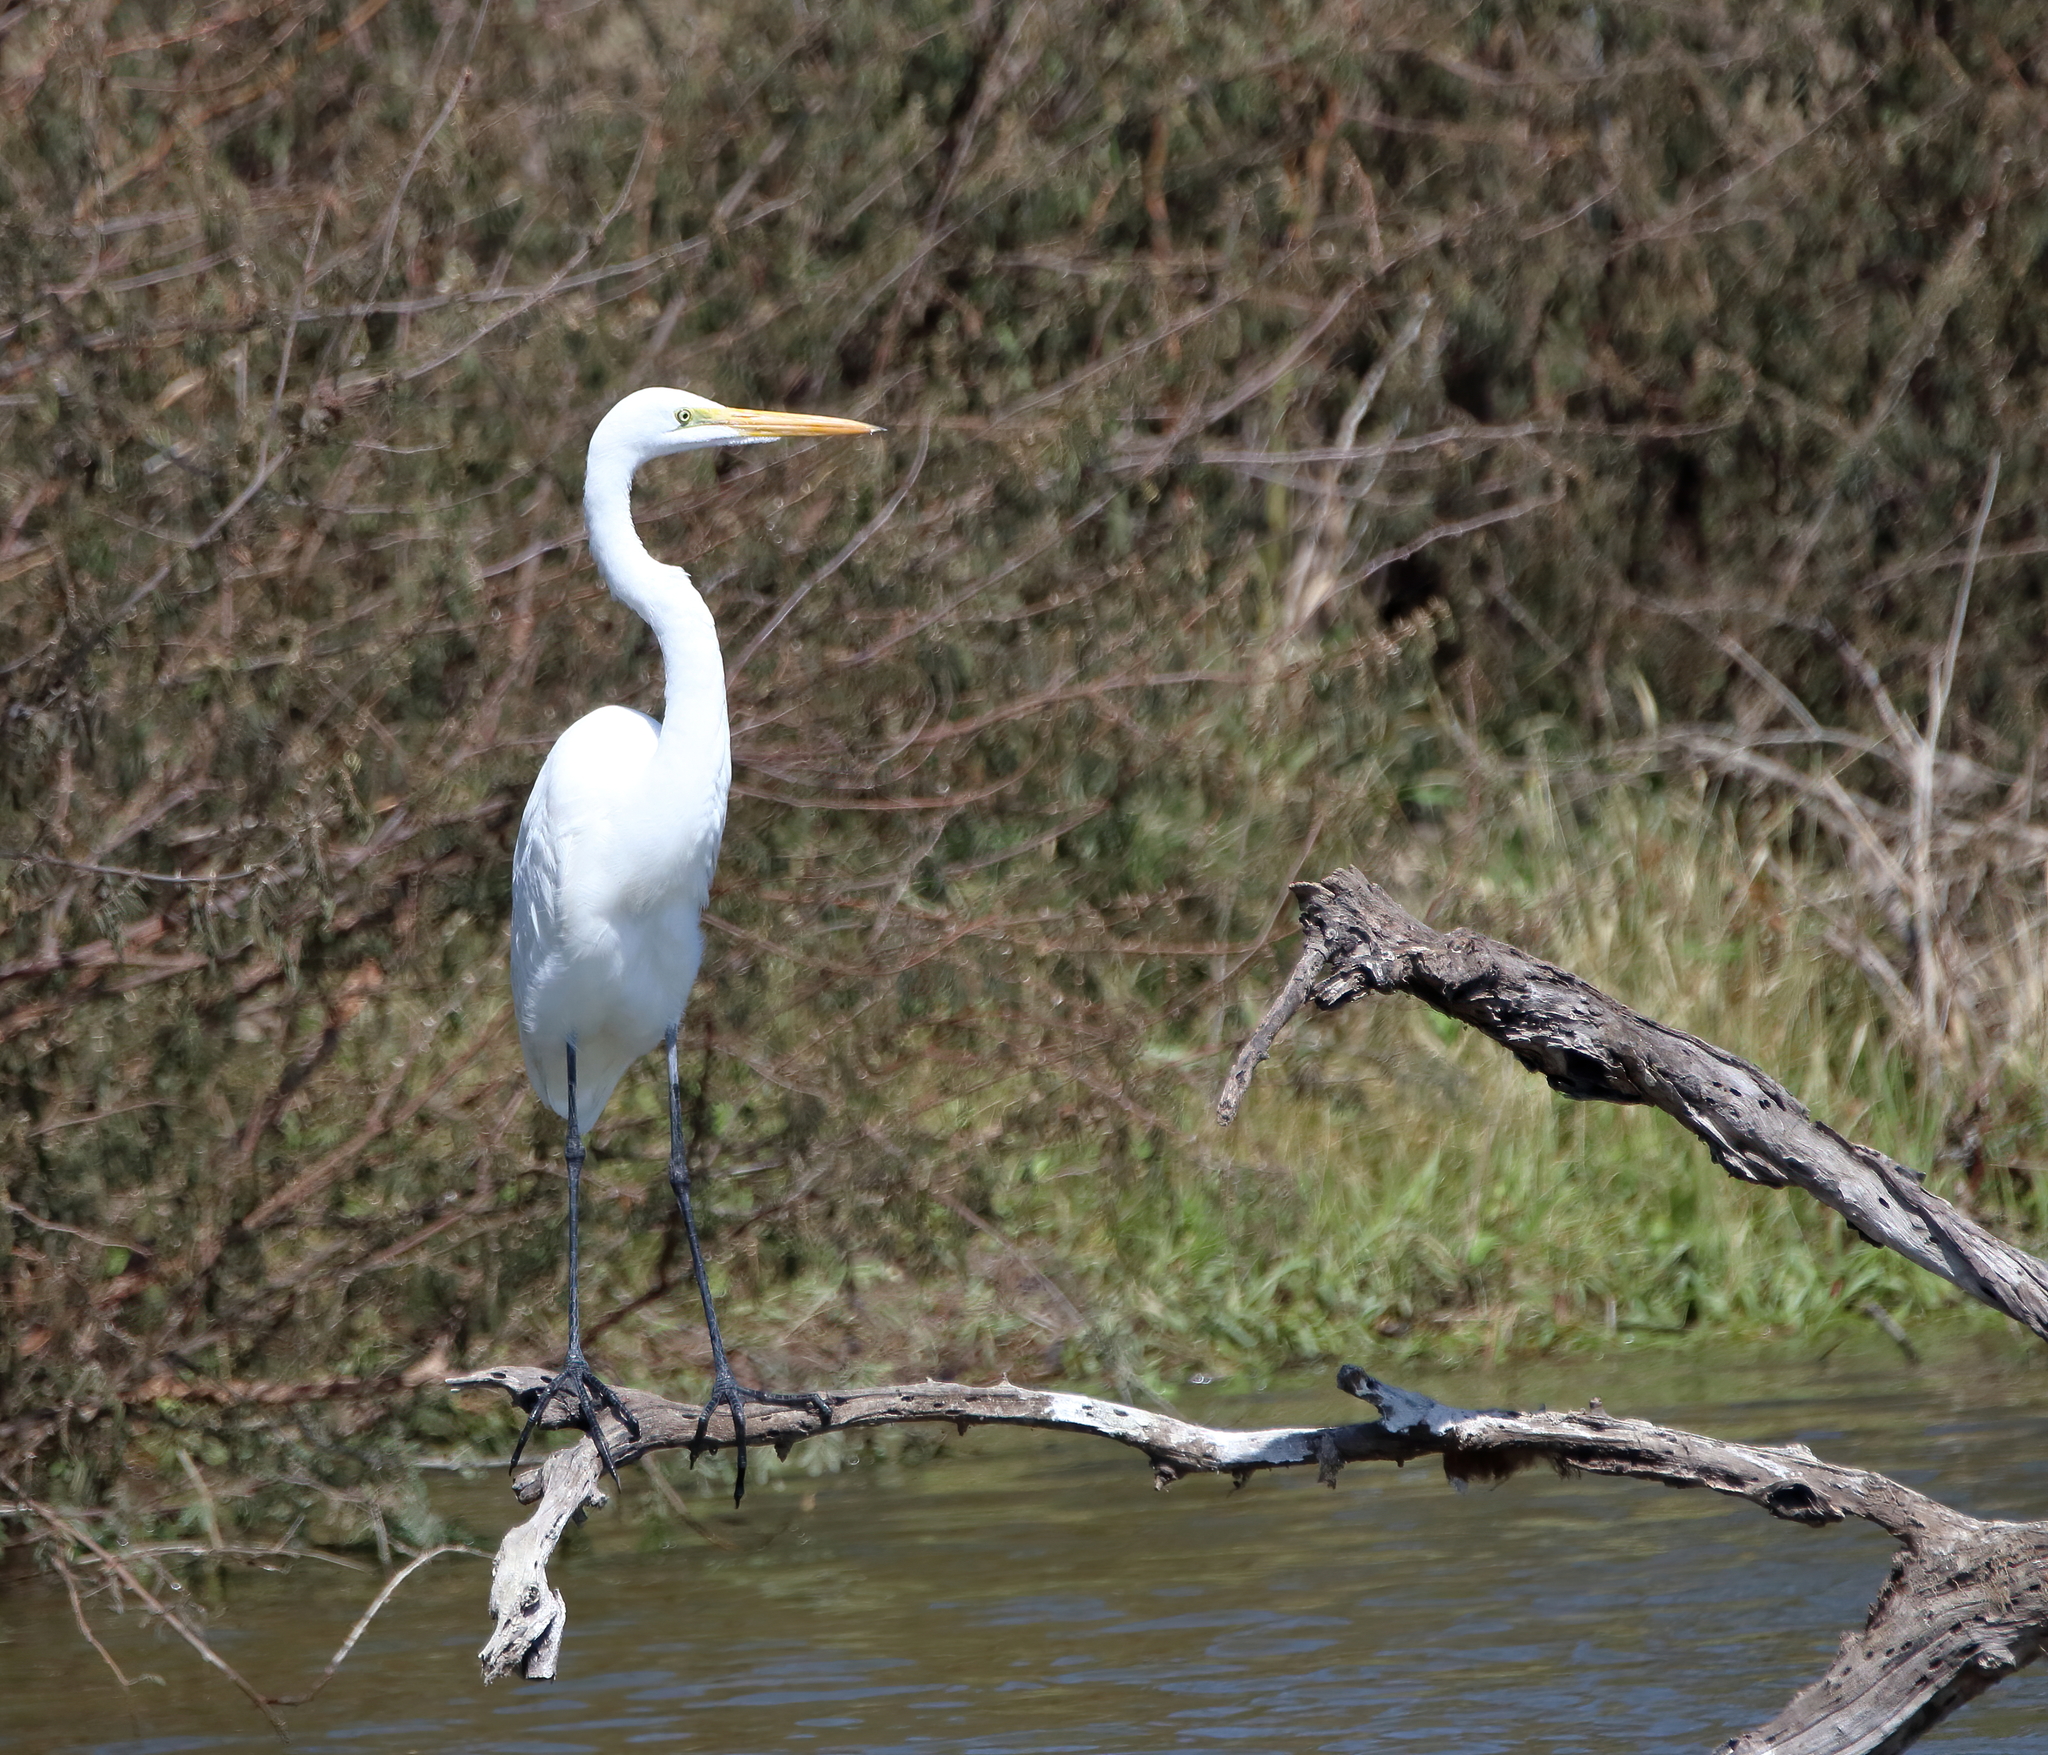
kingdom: Animalia
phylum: Chordata
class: Aves
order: Pelecaniformes
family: Ardeidae
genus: Ardea
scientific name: Ardea alba
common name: Great egret
